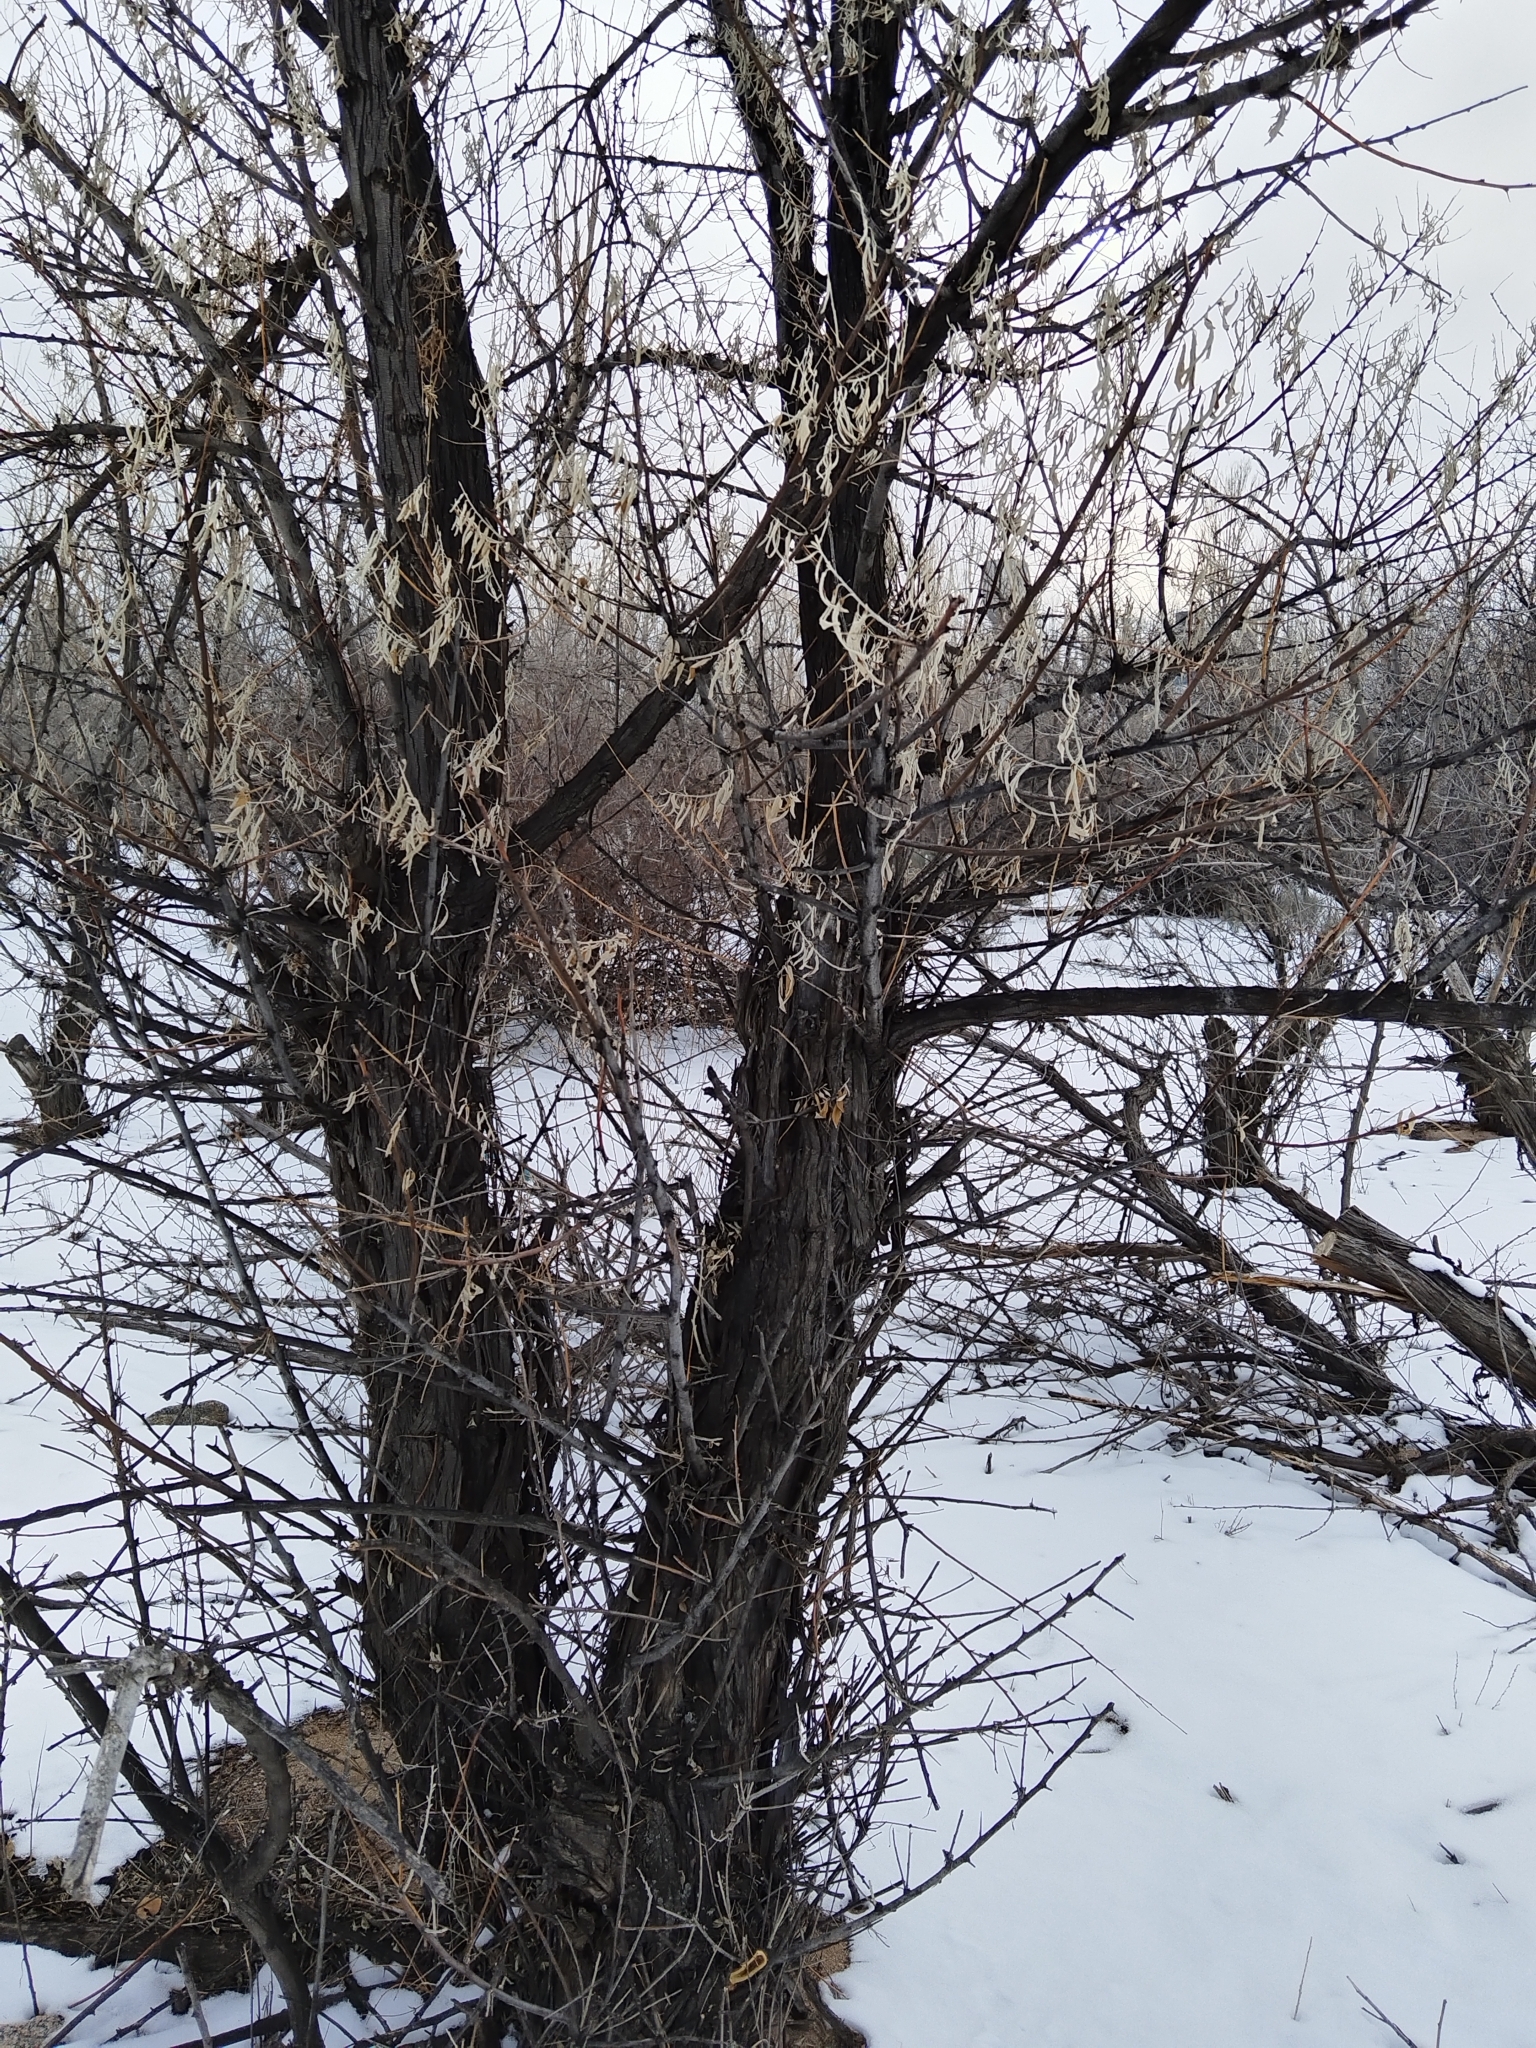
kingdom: Plantae
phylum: Tracheophyta
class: Magnoliopsida
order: Rosales
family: Elaeagnaceae
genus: Elaeagnus
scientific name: Elaeagnus angustifolia
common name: Russian olive
